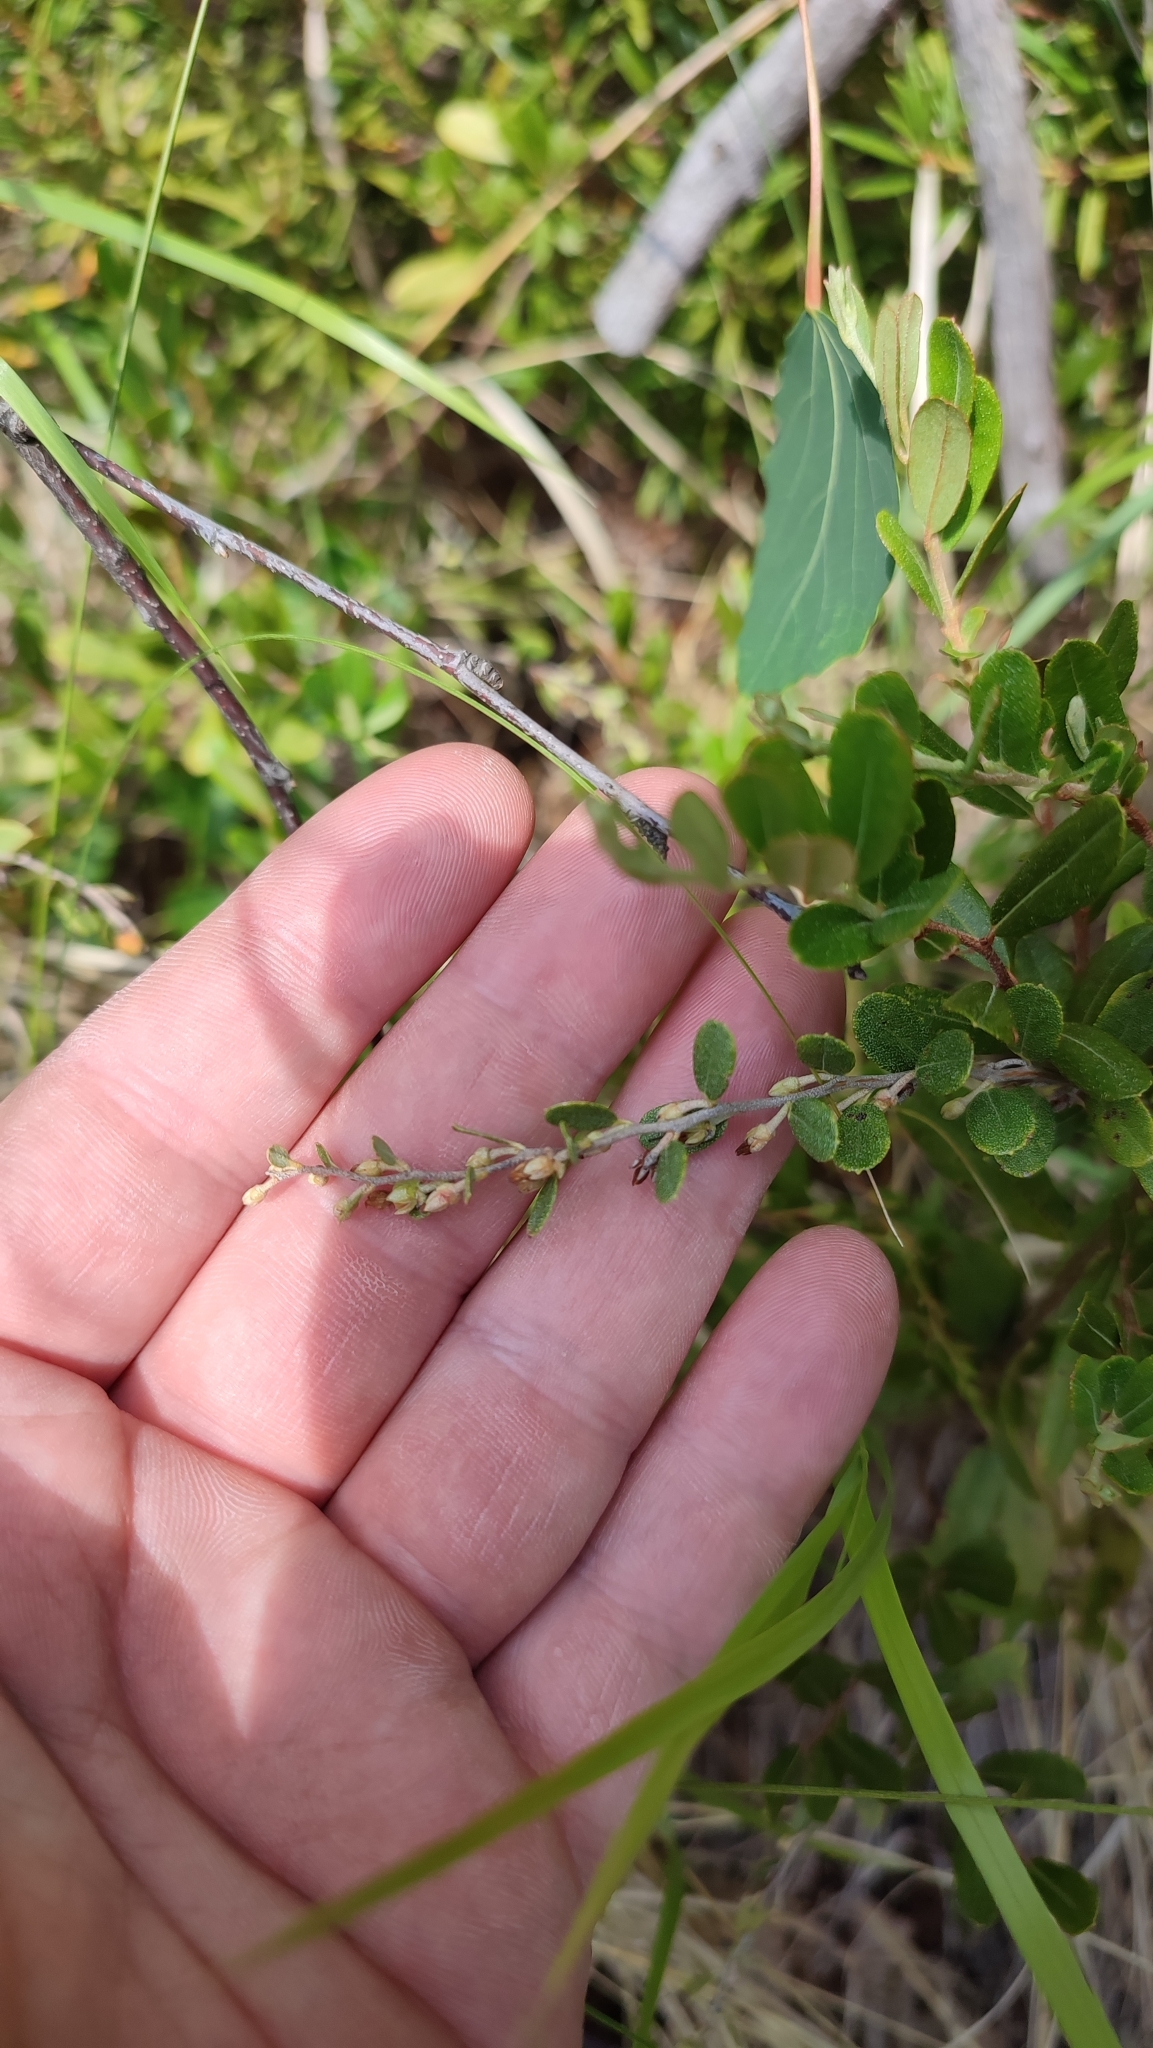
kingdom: Plantae
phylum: Tracheophyta
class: Magnoliopsida
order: Ericales
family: Ericaceae
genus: Chamaedaphne
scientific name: Chamaedaphne calyculata
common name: Leatherleaf
